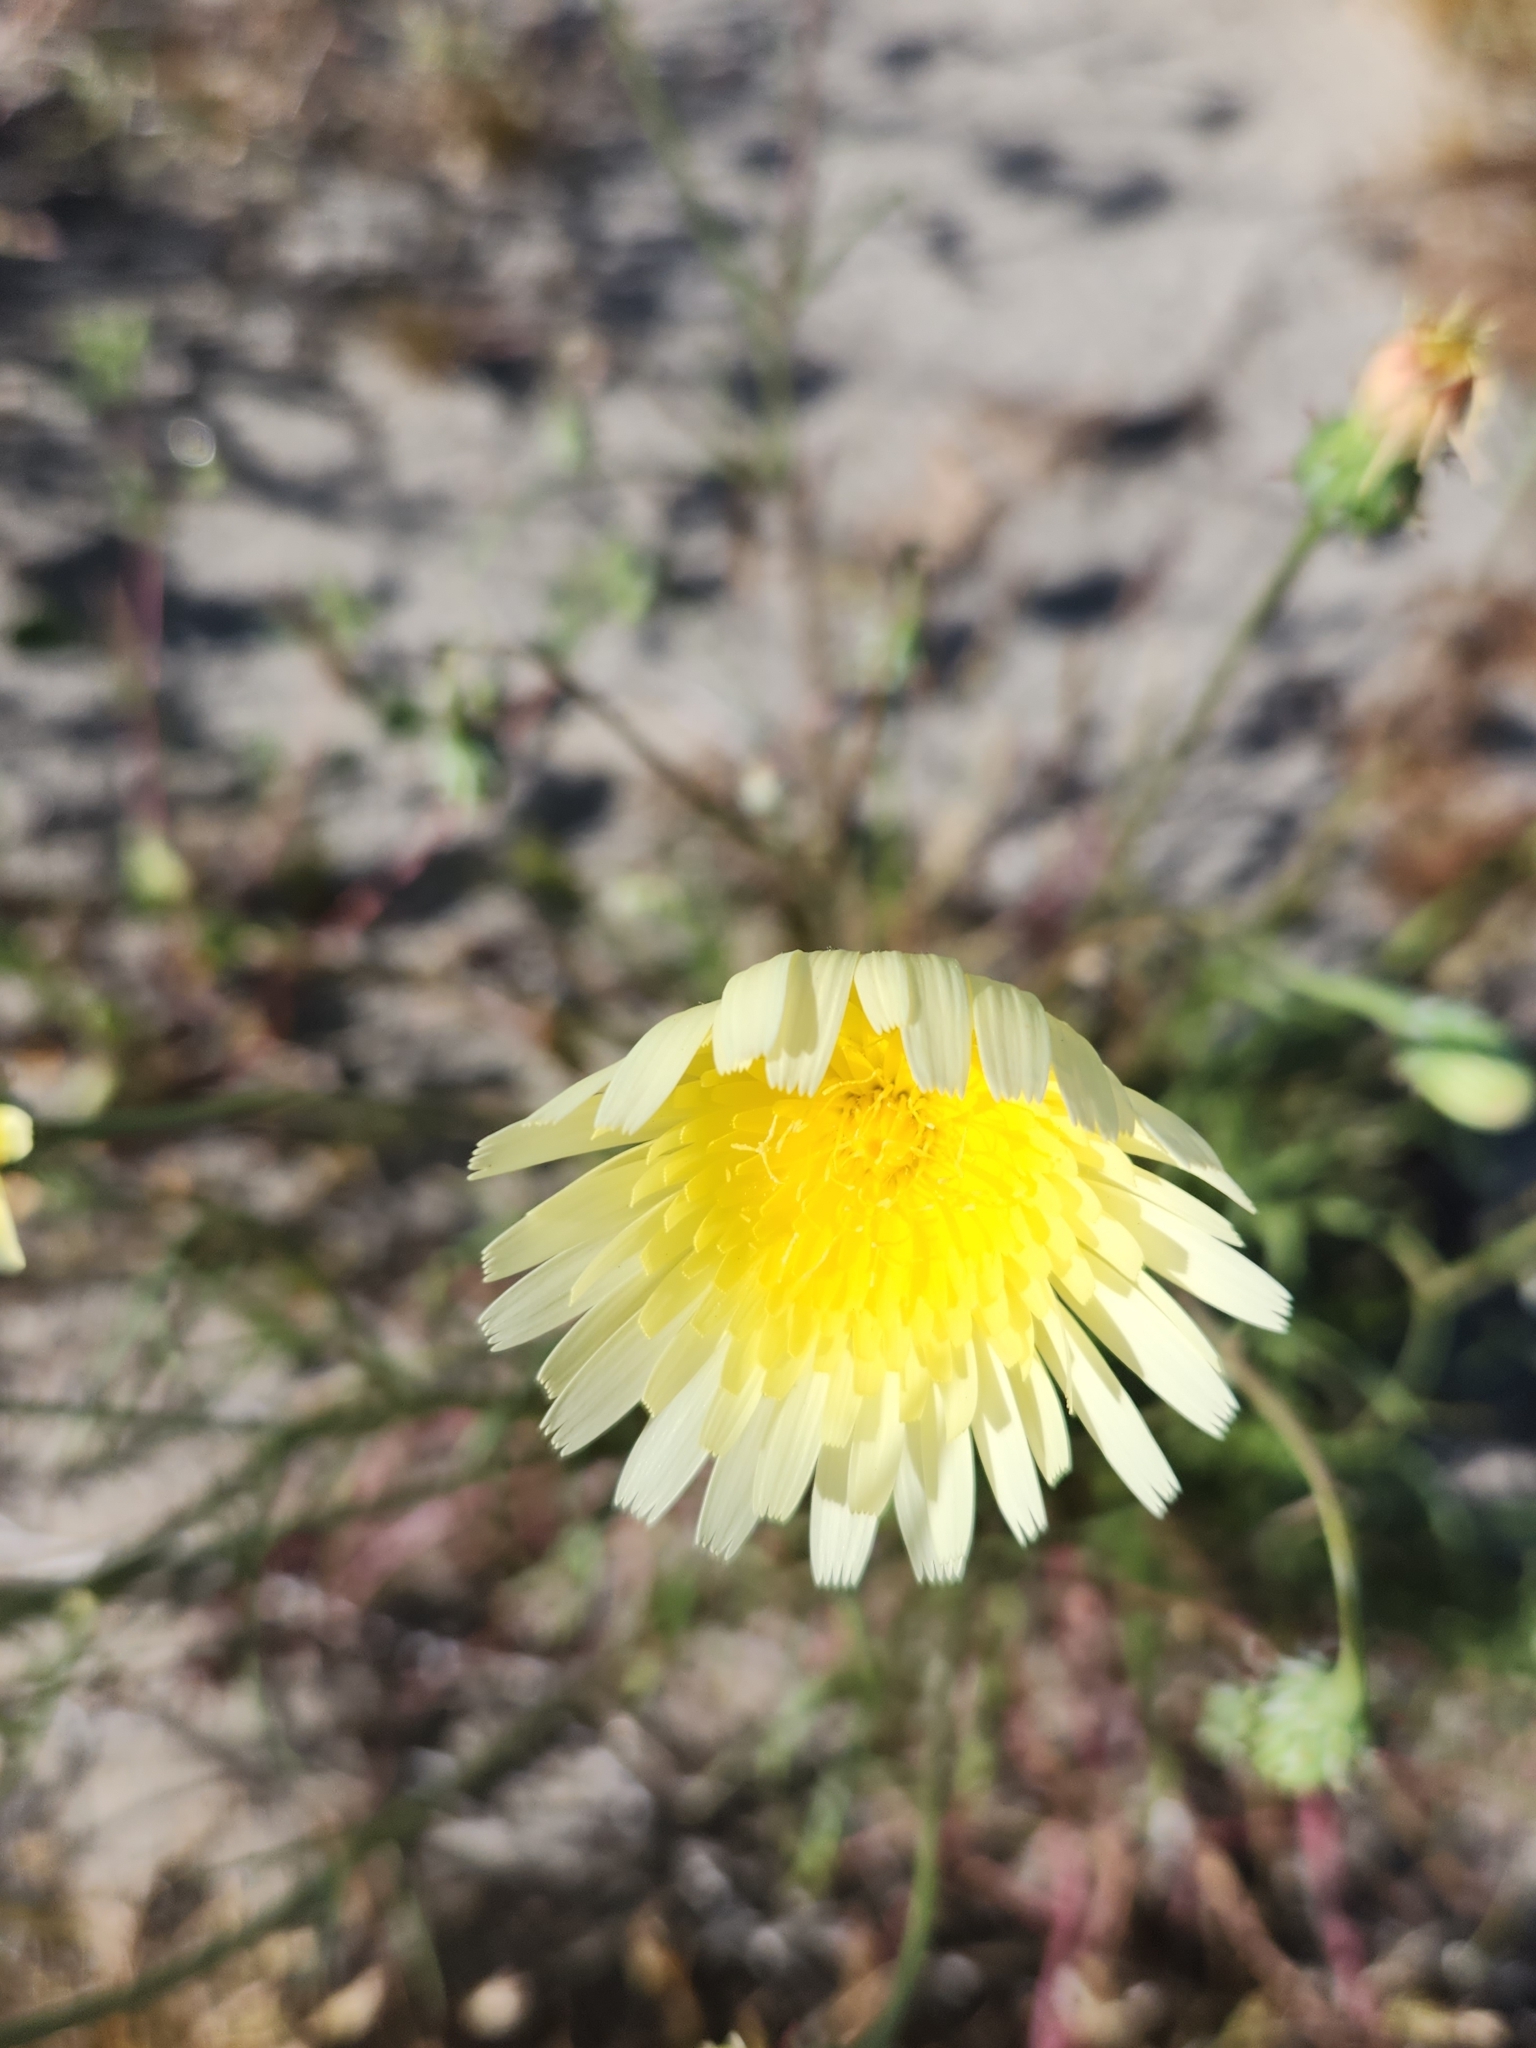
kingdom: Plantae
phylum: Tracheophyta
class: Magnoliopsida
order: Asterales
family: Asteraceae
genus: Malacothrix
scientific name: Malacothrix glabrata
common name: Smooth desert-dandelion
